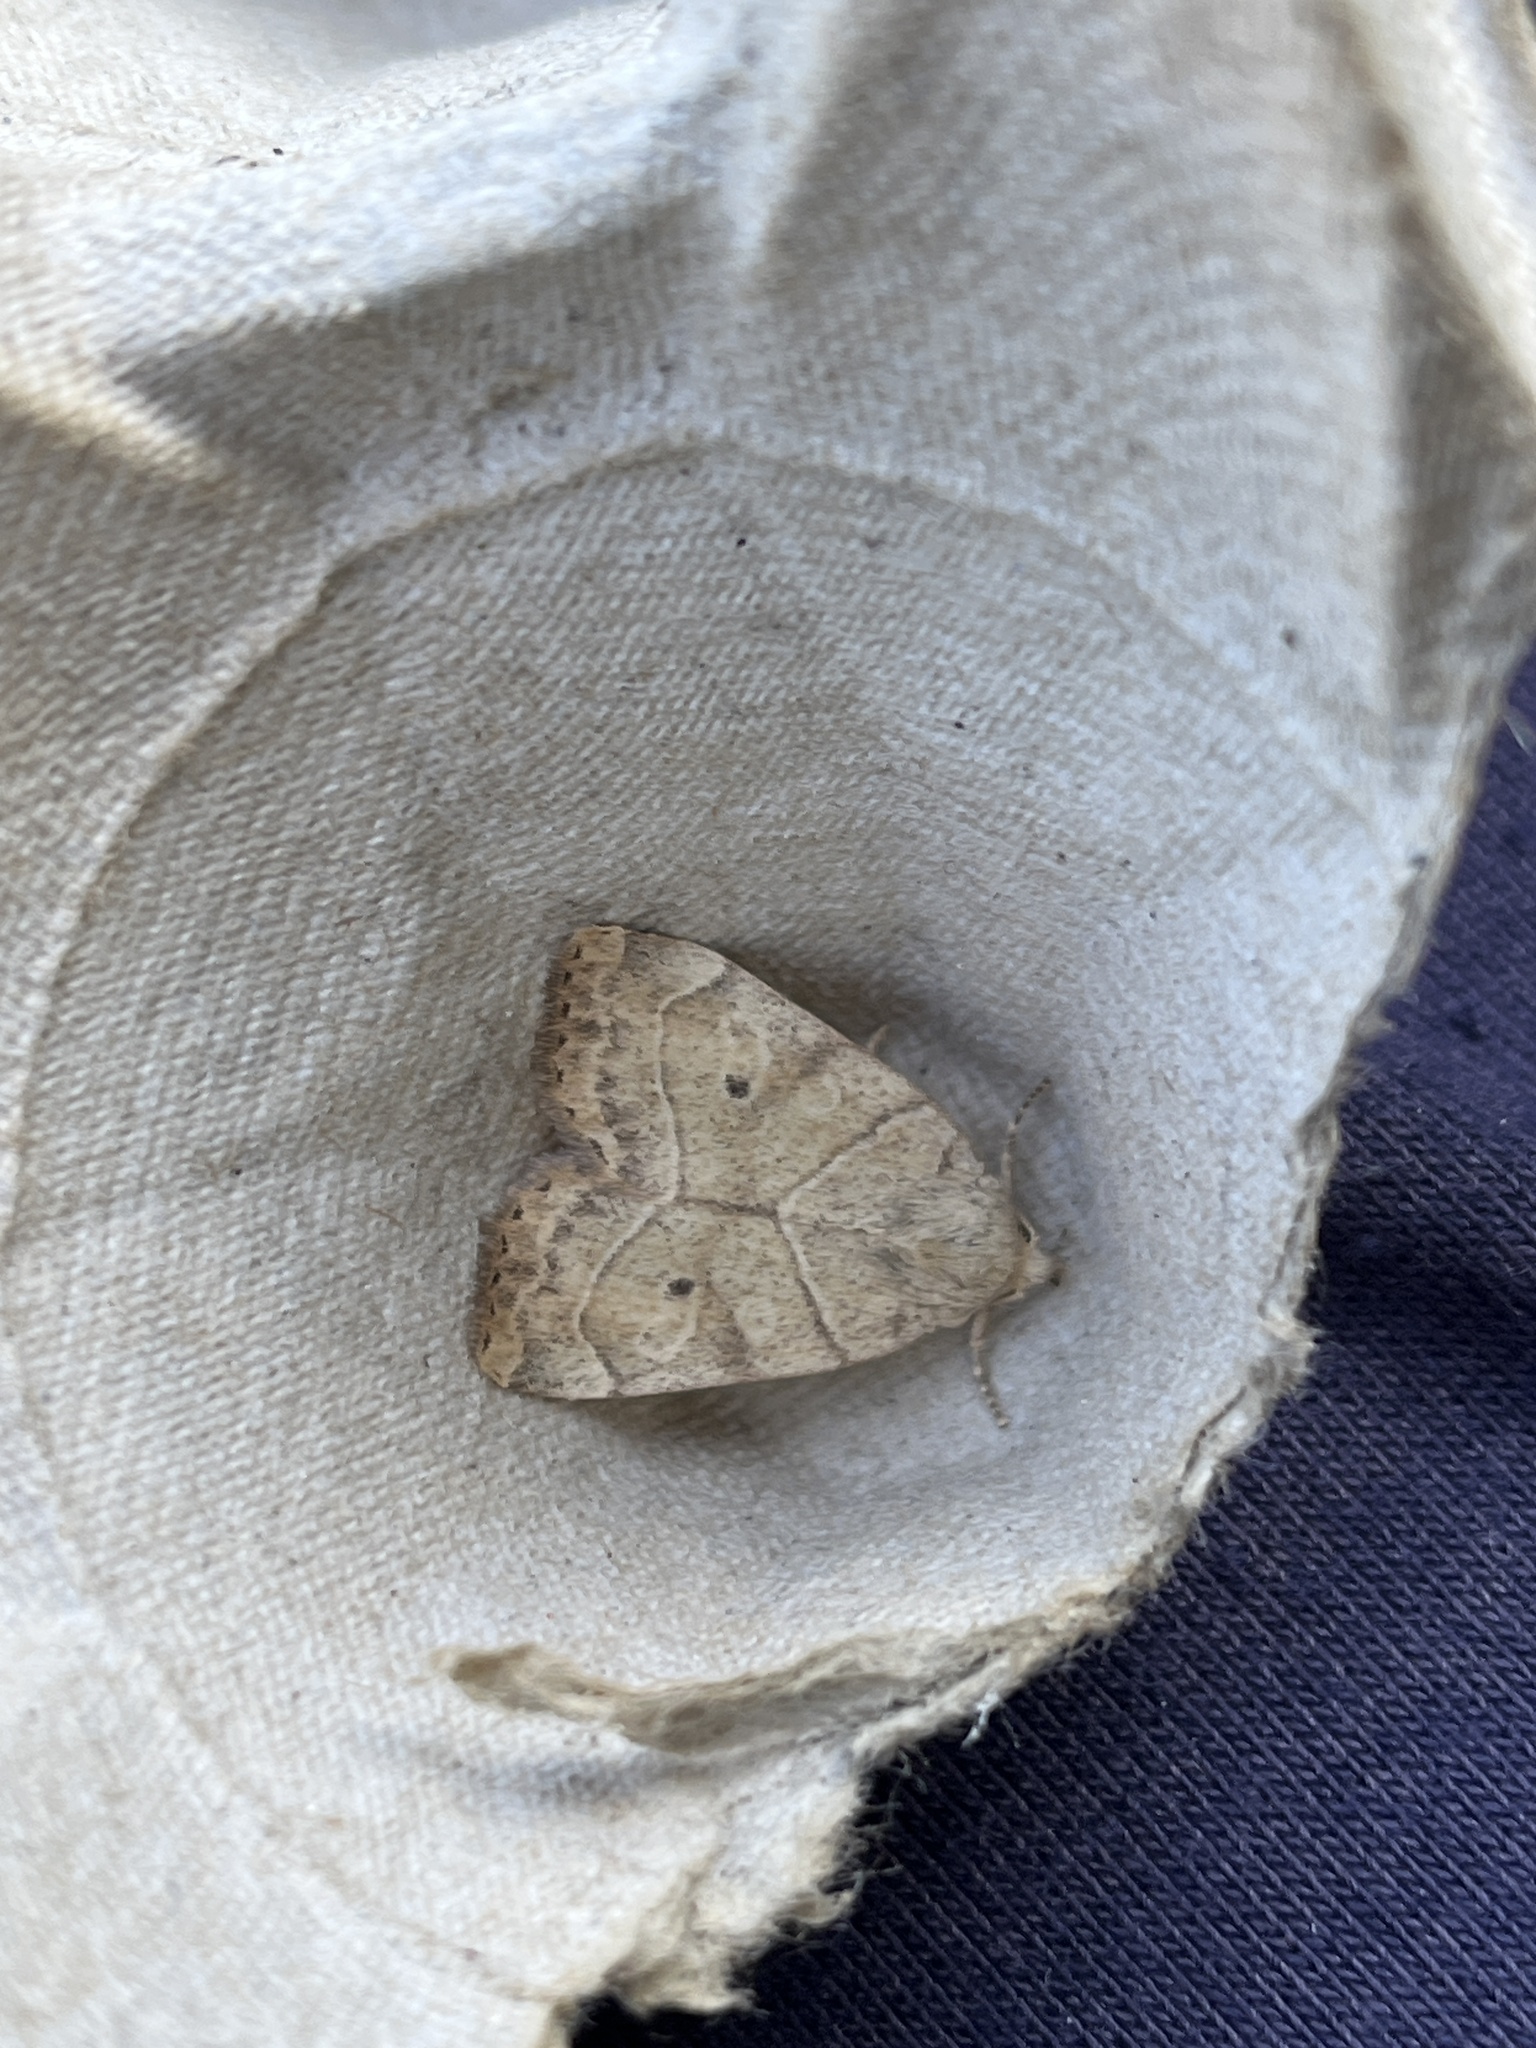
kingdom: Animalia
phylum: Arthropoda
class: Insecta
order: Lepidoptera
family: Noctuidae
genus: Cosmia
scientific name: Cosmia trapezina
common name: Dun-bar
